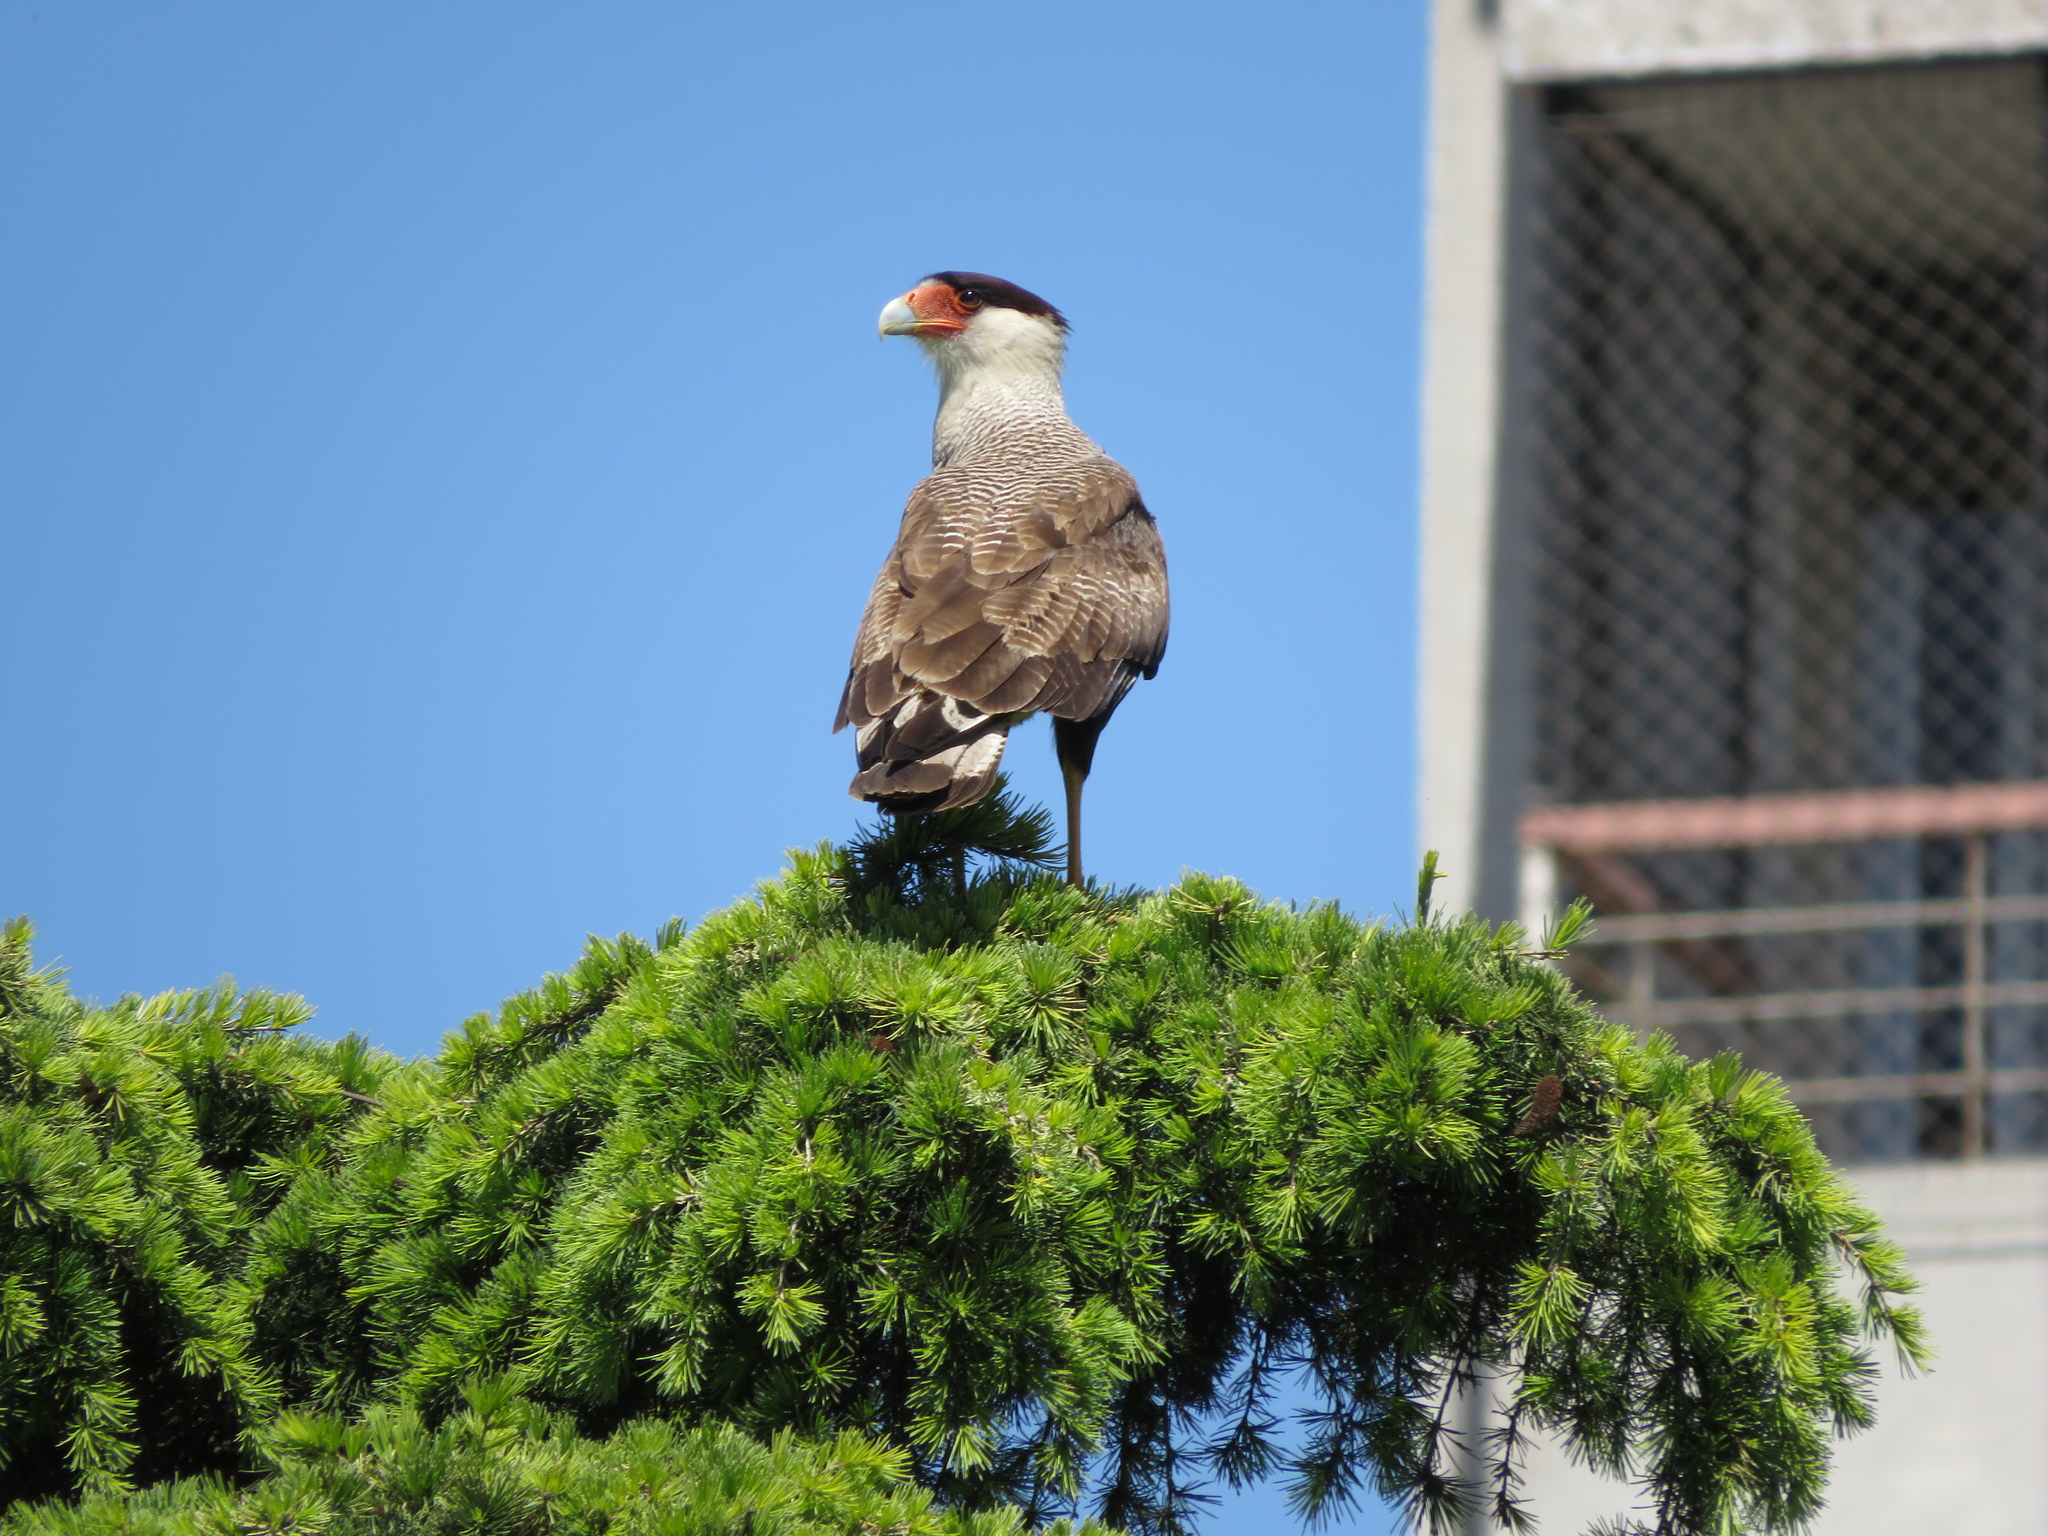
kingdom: Animalia
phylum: Chordata
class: Aves
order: Falconiformes
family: Falconidae
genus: Caracara
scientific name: Caracara plancus
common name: Southern caracara
